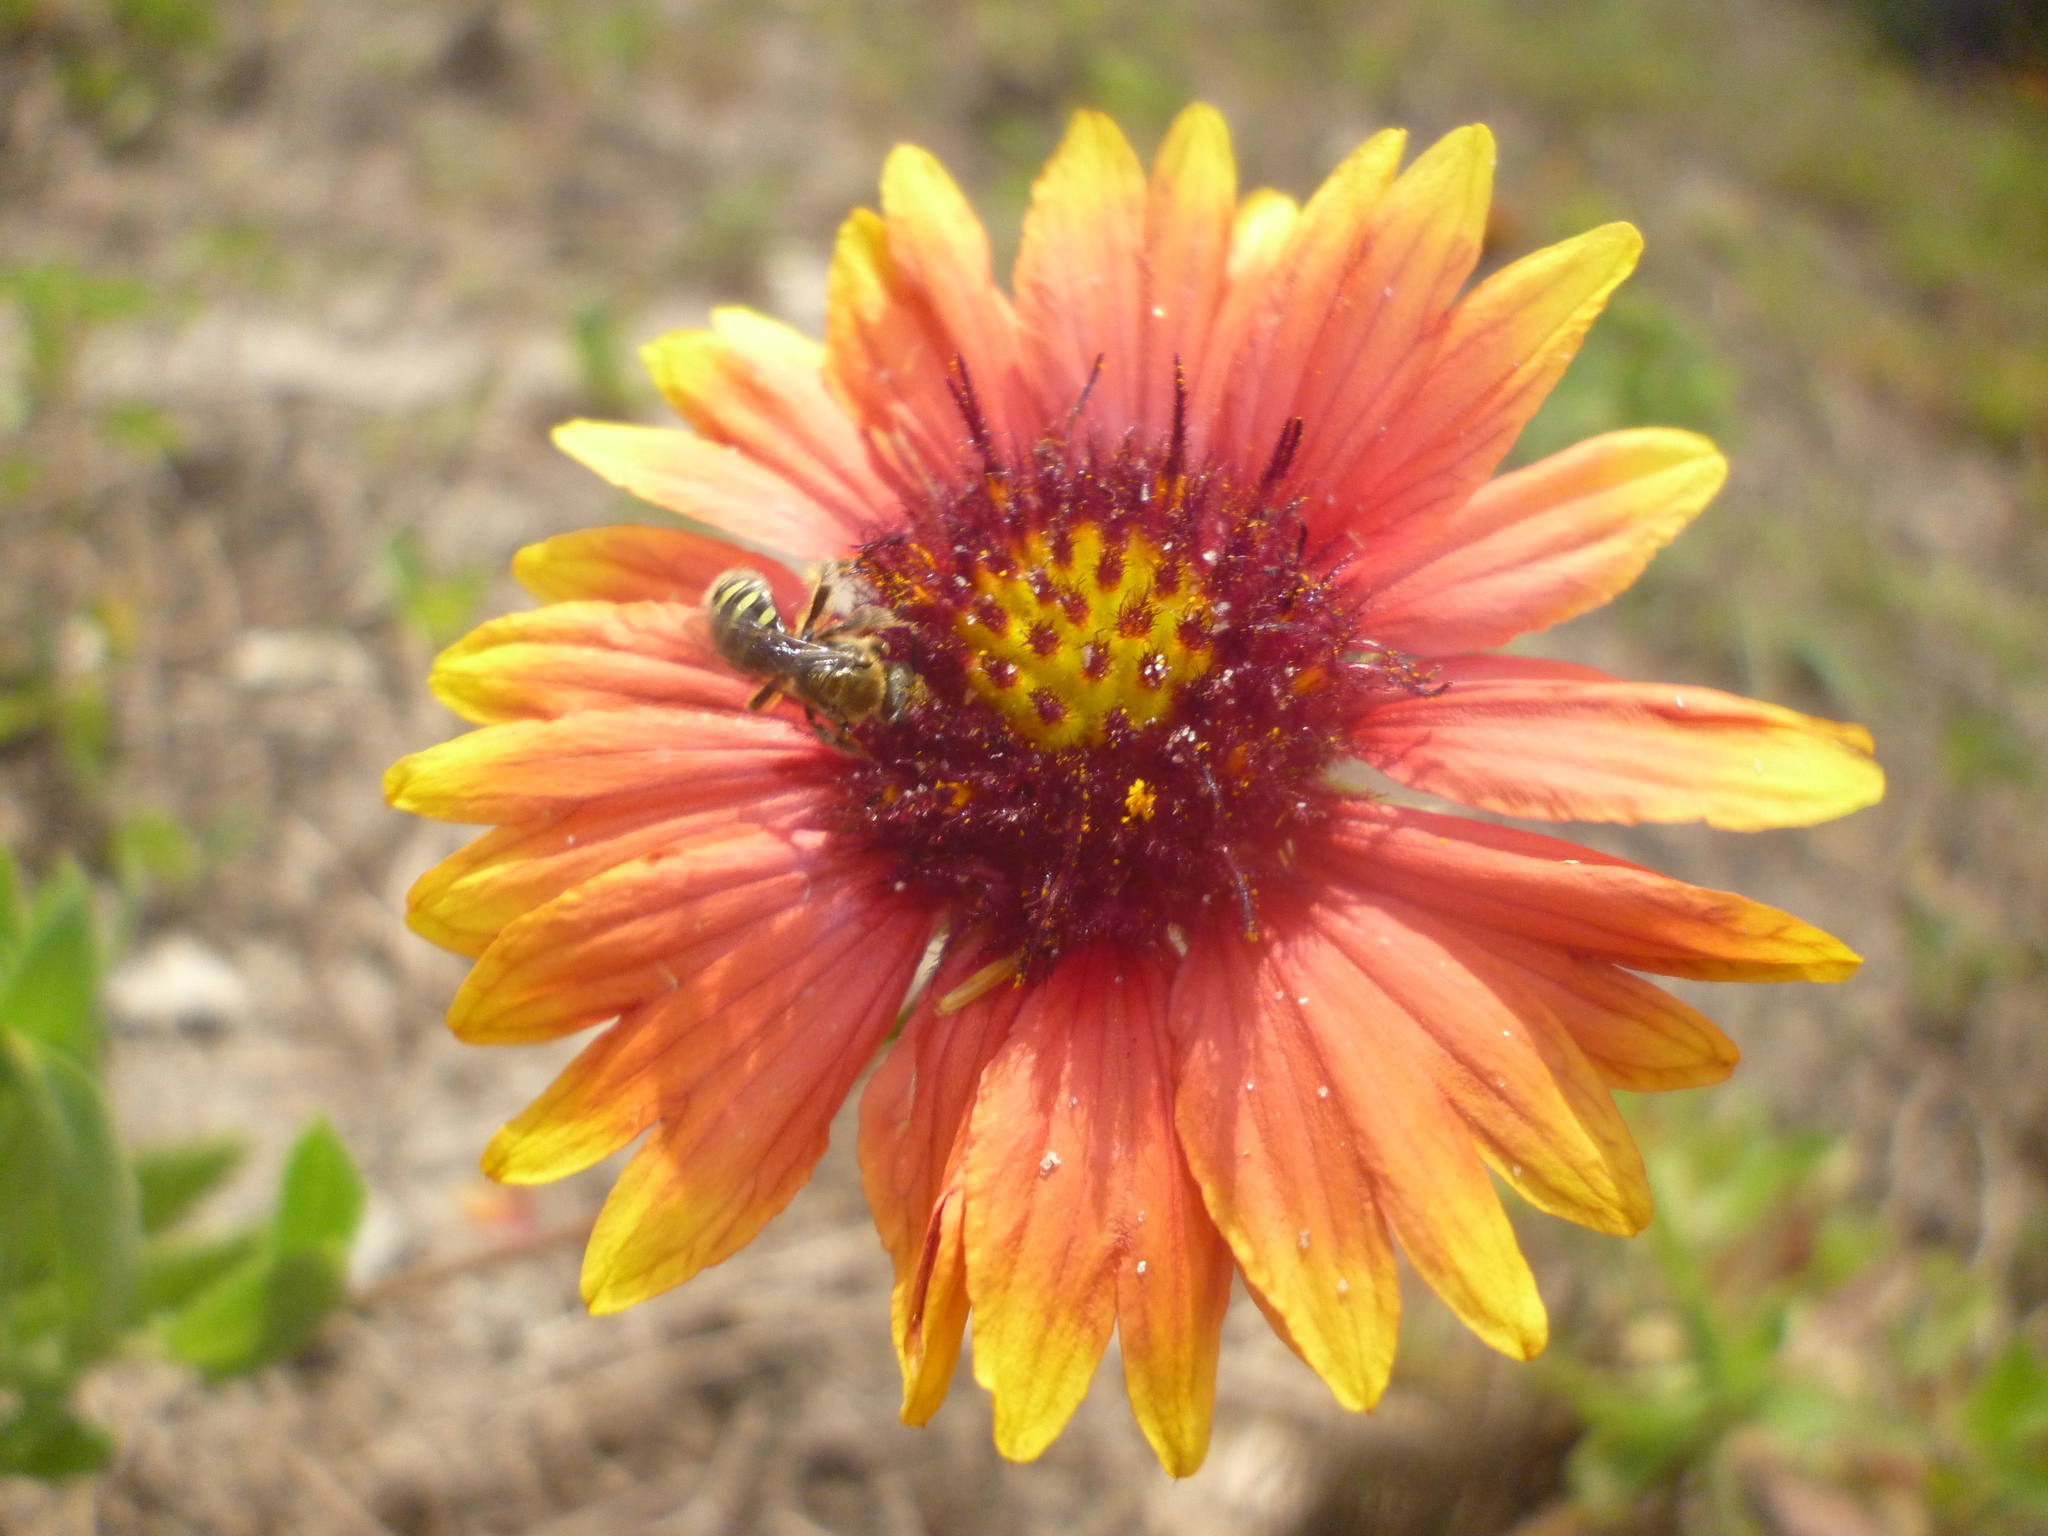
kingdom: Plantae
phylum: Tracheophyta
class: Magnoliopsida
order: Asterales
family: Asteraceae
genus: Gaillardia
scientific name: Gaillardia pulchella
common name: Firewheel
